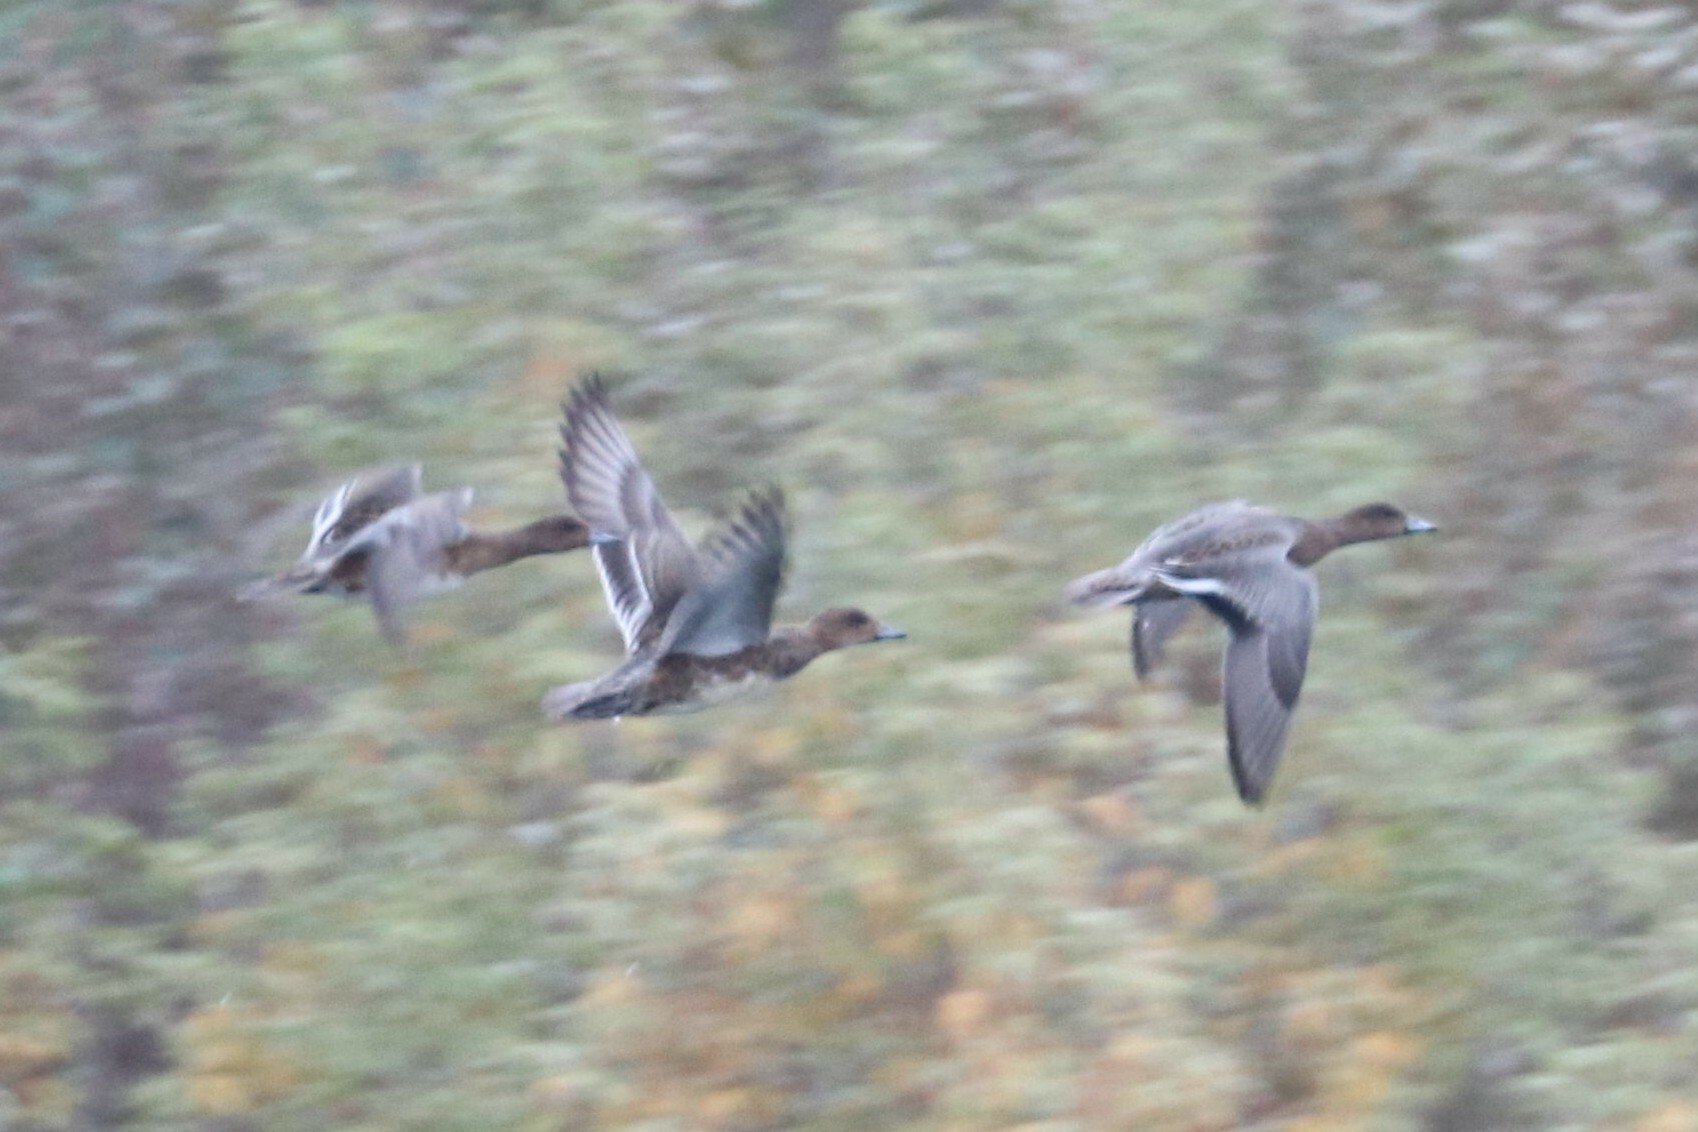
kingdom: Animalia
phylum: Chordata
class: Aves
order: Anseriformes
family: Anatidae
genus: Mareca
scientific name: Mareca penelope
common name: Eurasian wigeon
